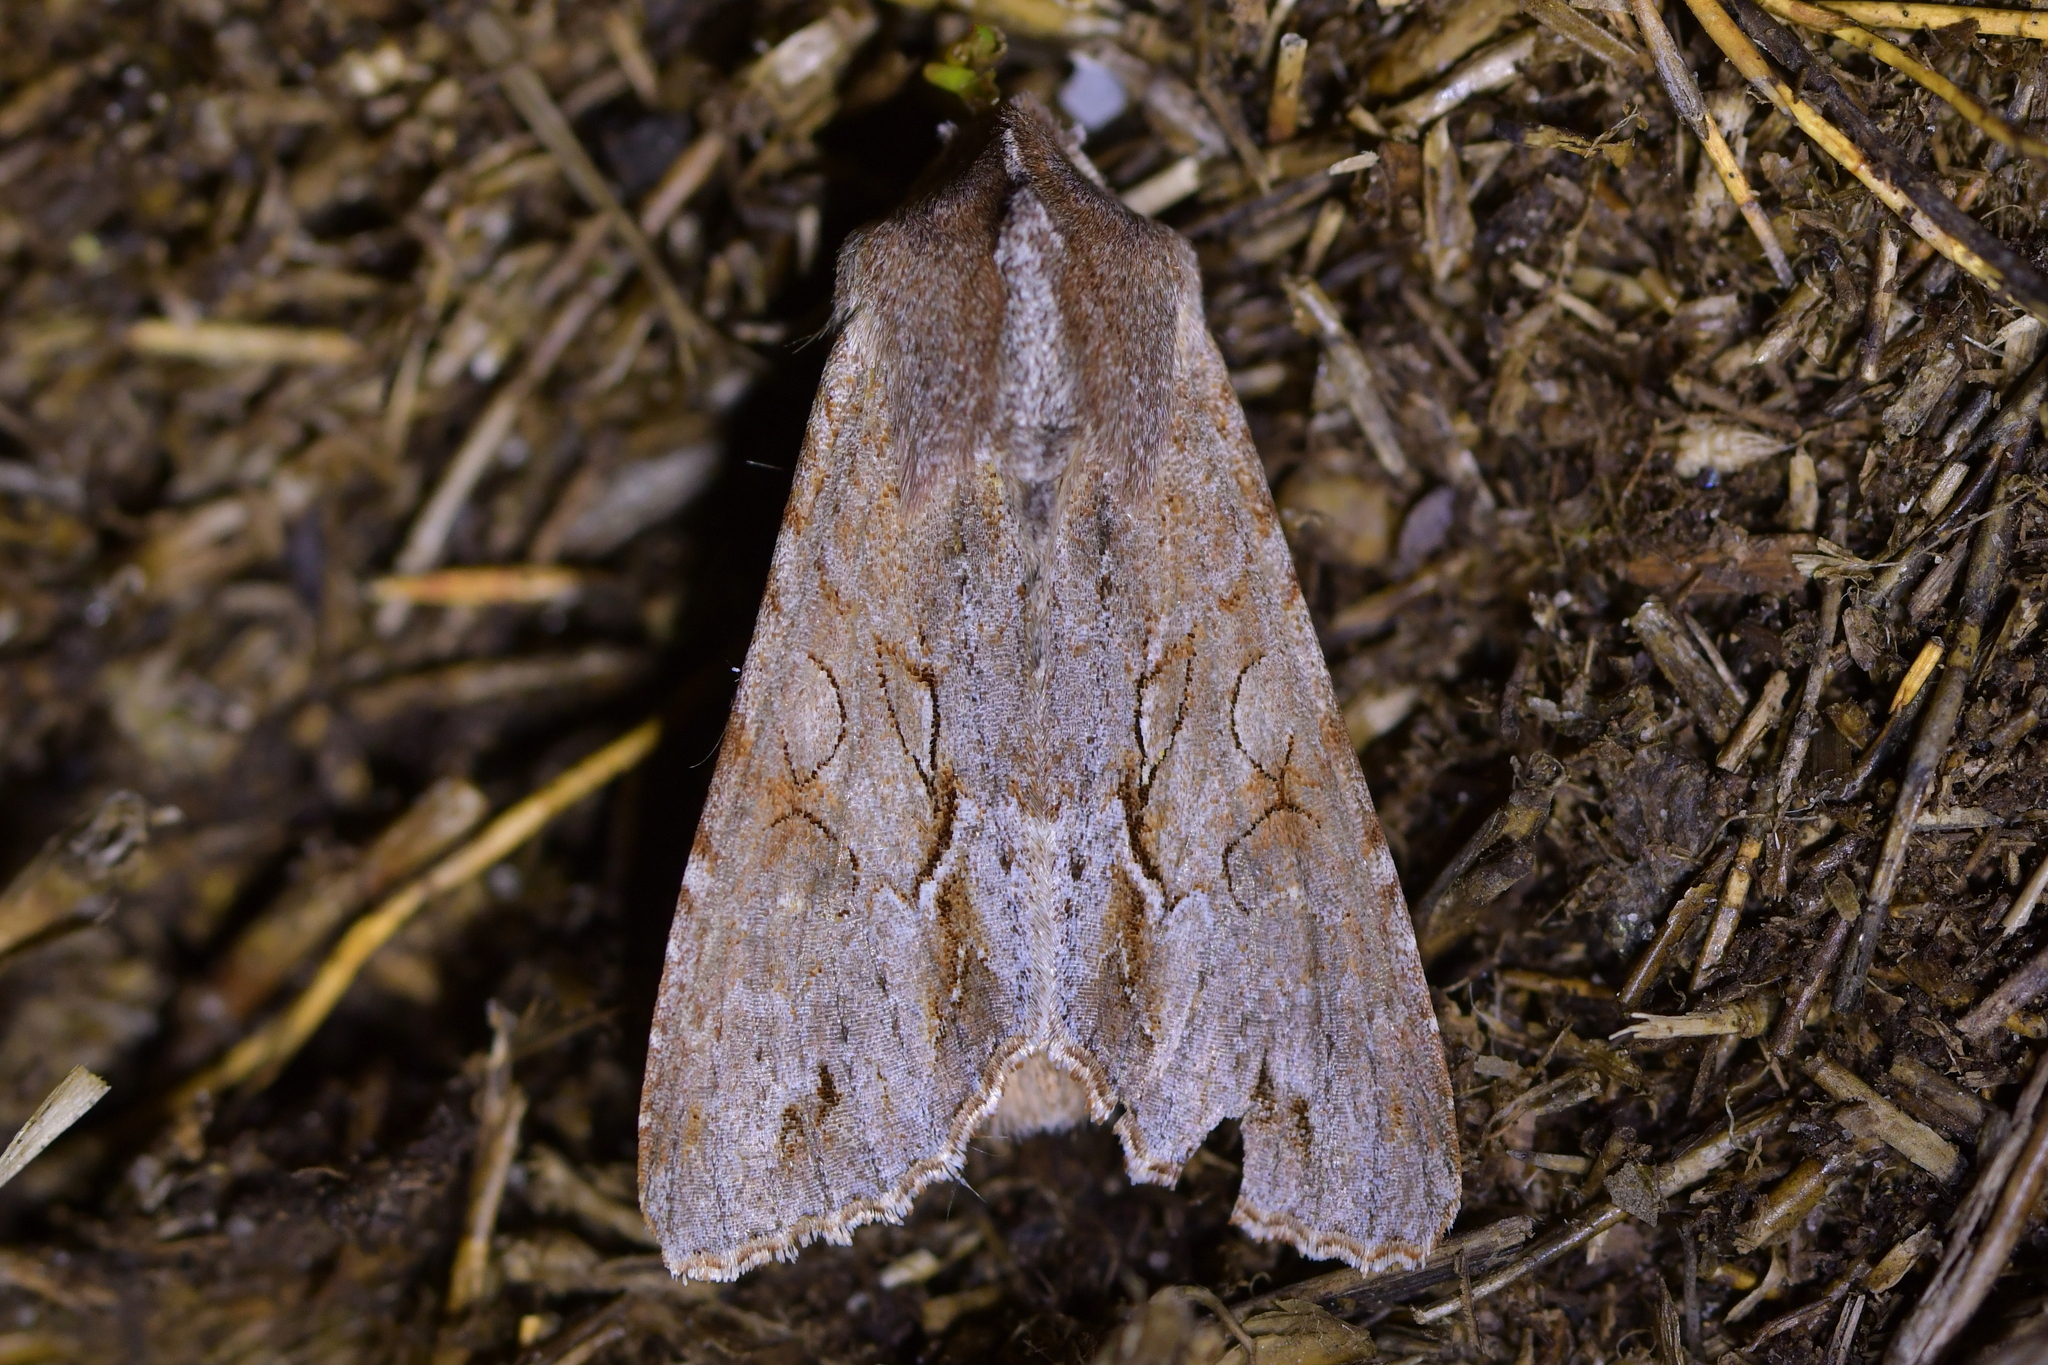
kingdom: Animalia
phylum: Arthropoda
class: Insecta
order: Lepidoptera
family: Noctuidae
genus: Ichneutica
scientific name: Ichneutica
